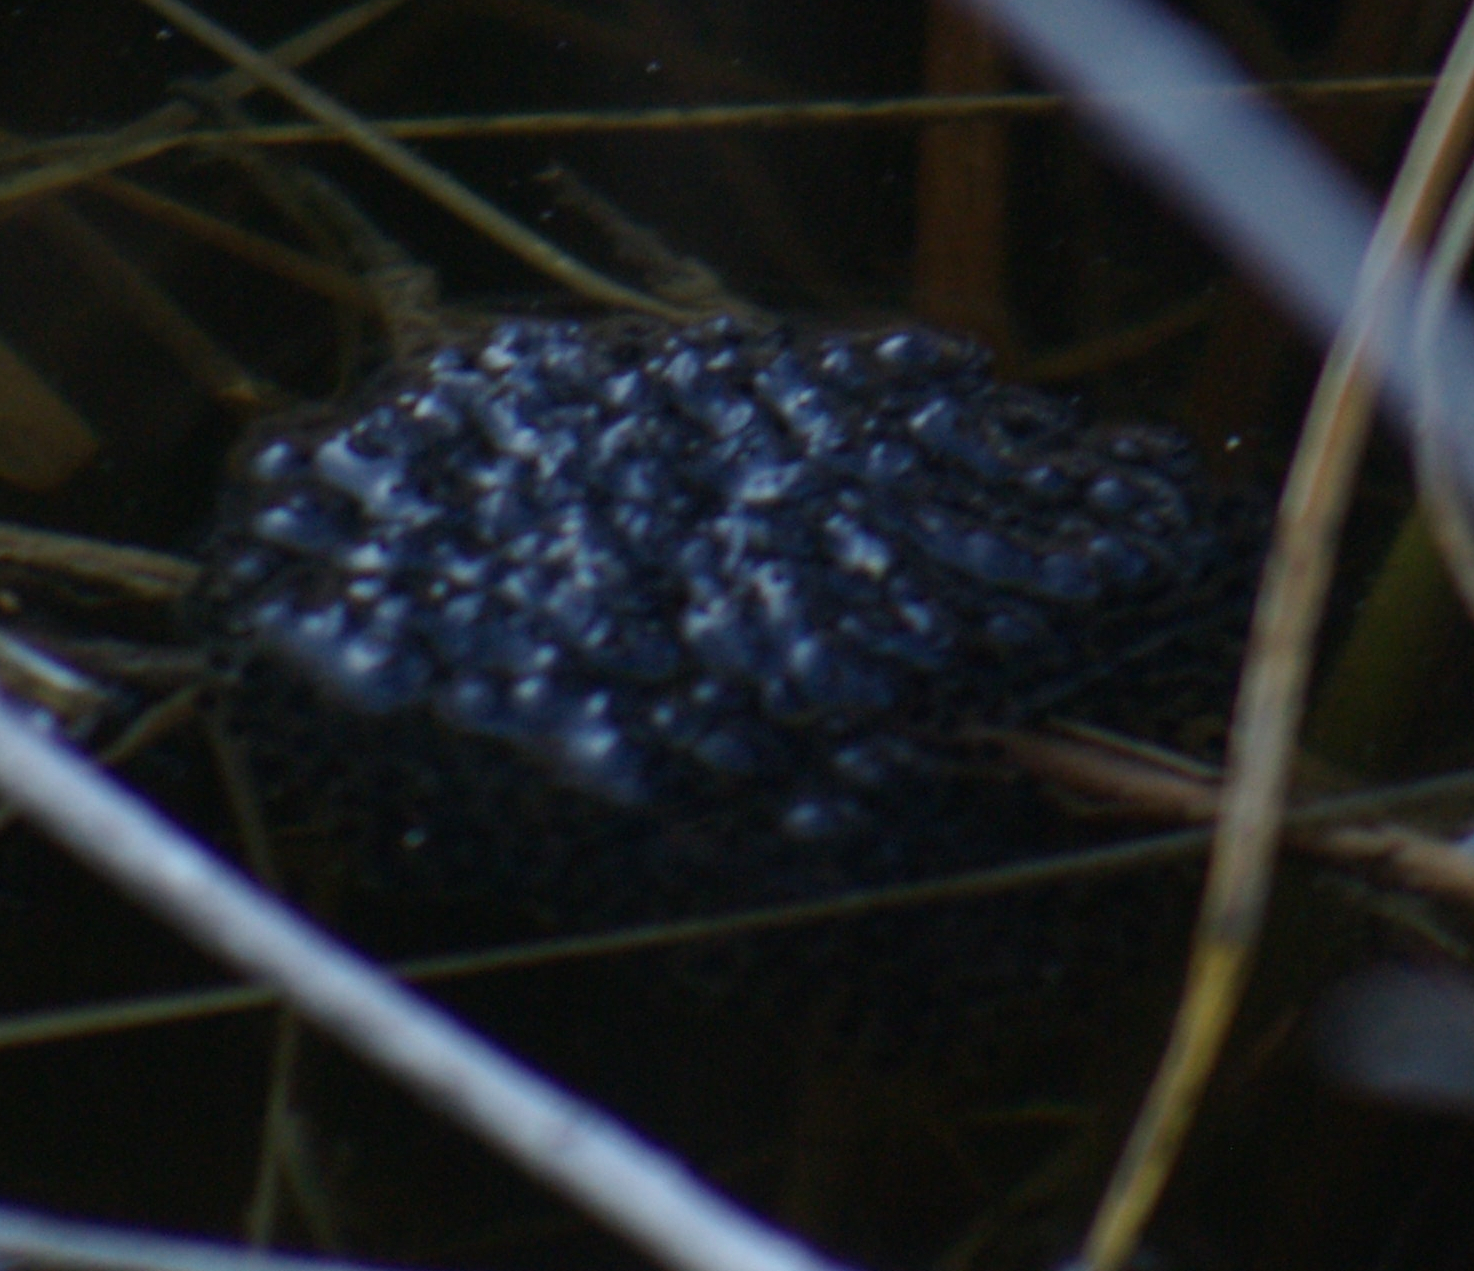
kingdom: Animalia
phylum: Chordata
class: Amphibia
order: Anura
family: Ranidae
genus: Lithobates
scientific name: Lithobates sylvaticus
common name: Wood frog
